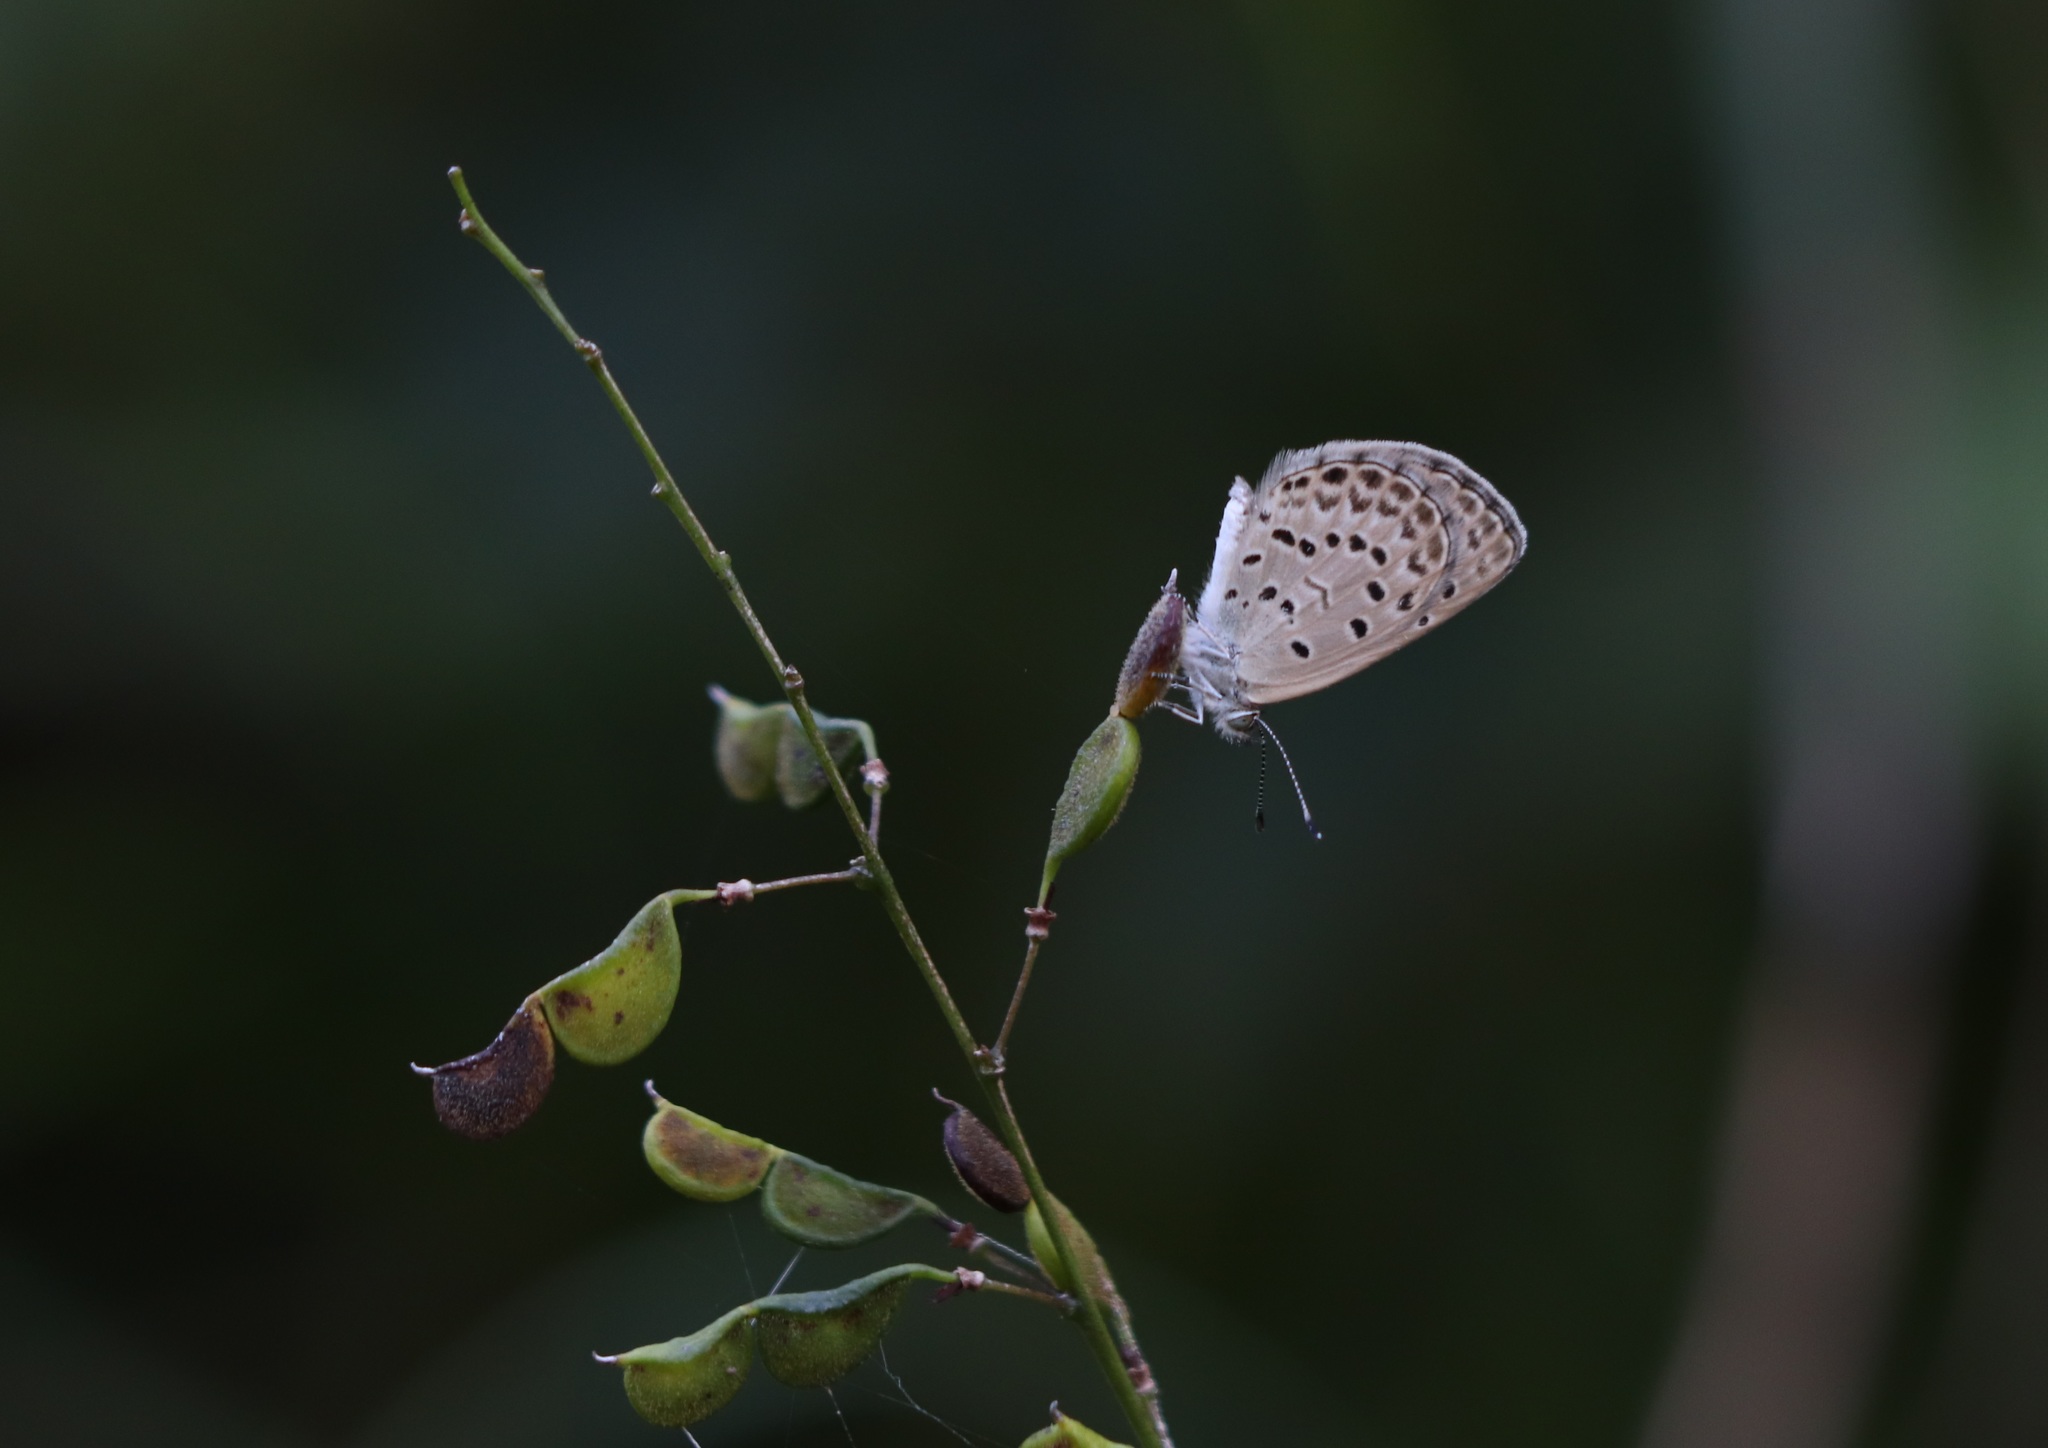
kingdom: Animalia
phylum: Arthropoda
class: Insecta
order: Lepidoptera
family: Lycaenidae
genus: Pseudozizeeria
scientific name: Pseudozizeeria maha
